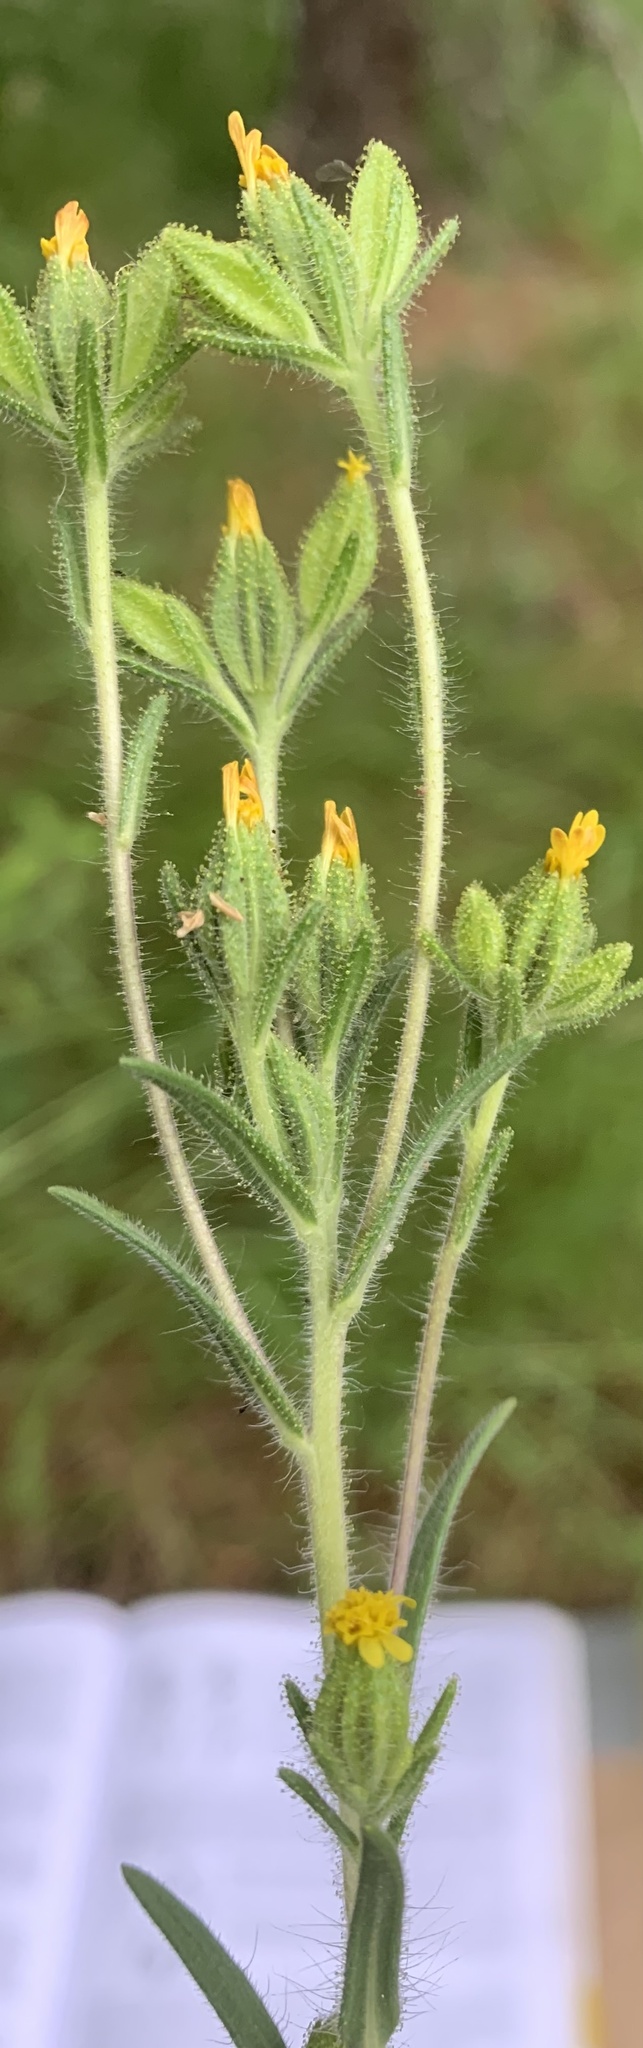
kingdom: Plantae
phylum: Tracheophyta
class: Magnoliopsida
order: Asterales
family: Asteraceae
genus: Madia
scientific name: Madia glomerata
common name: Mountain tarweed
